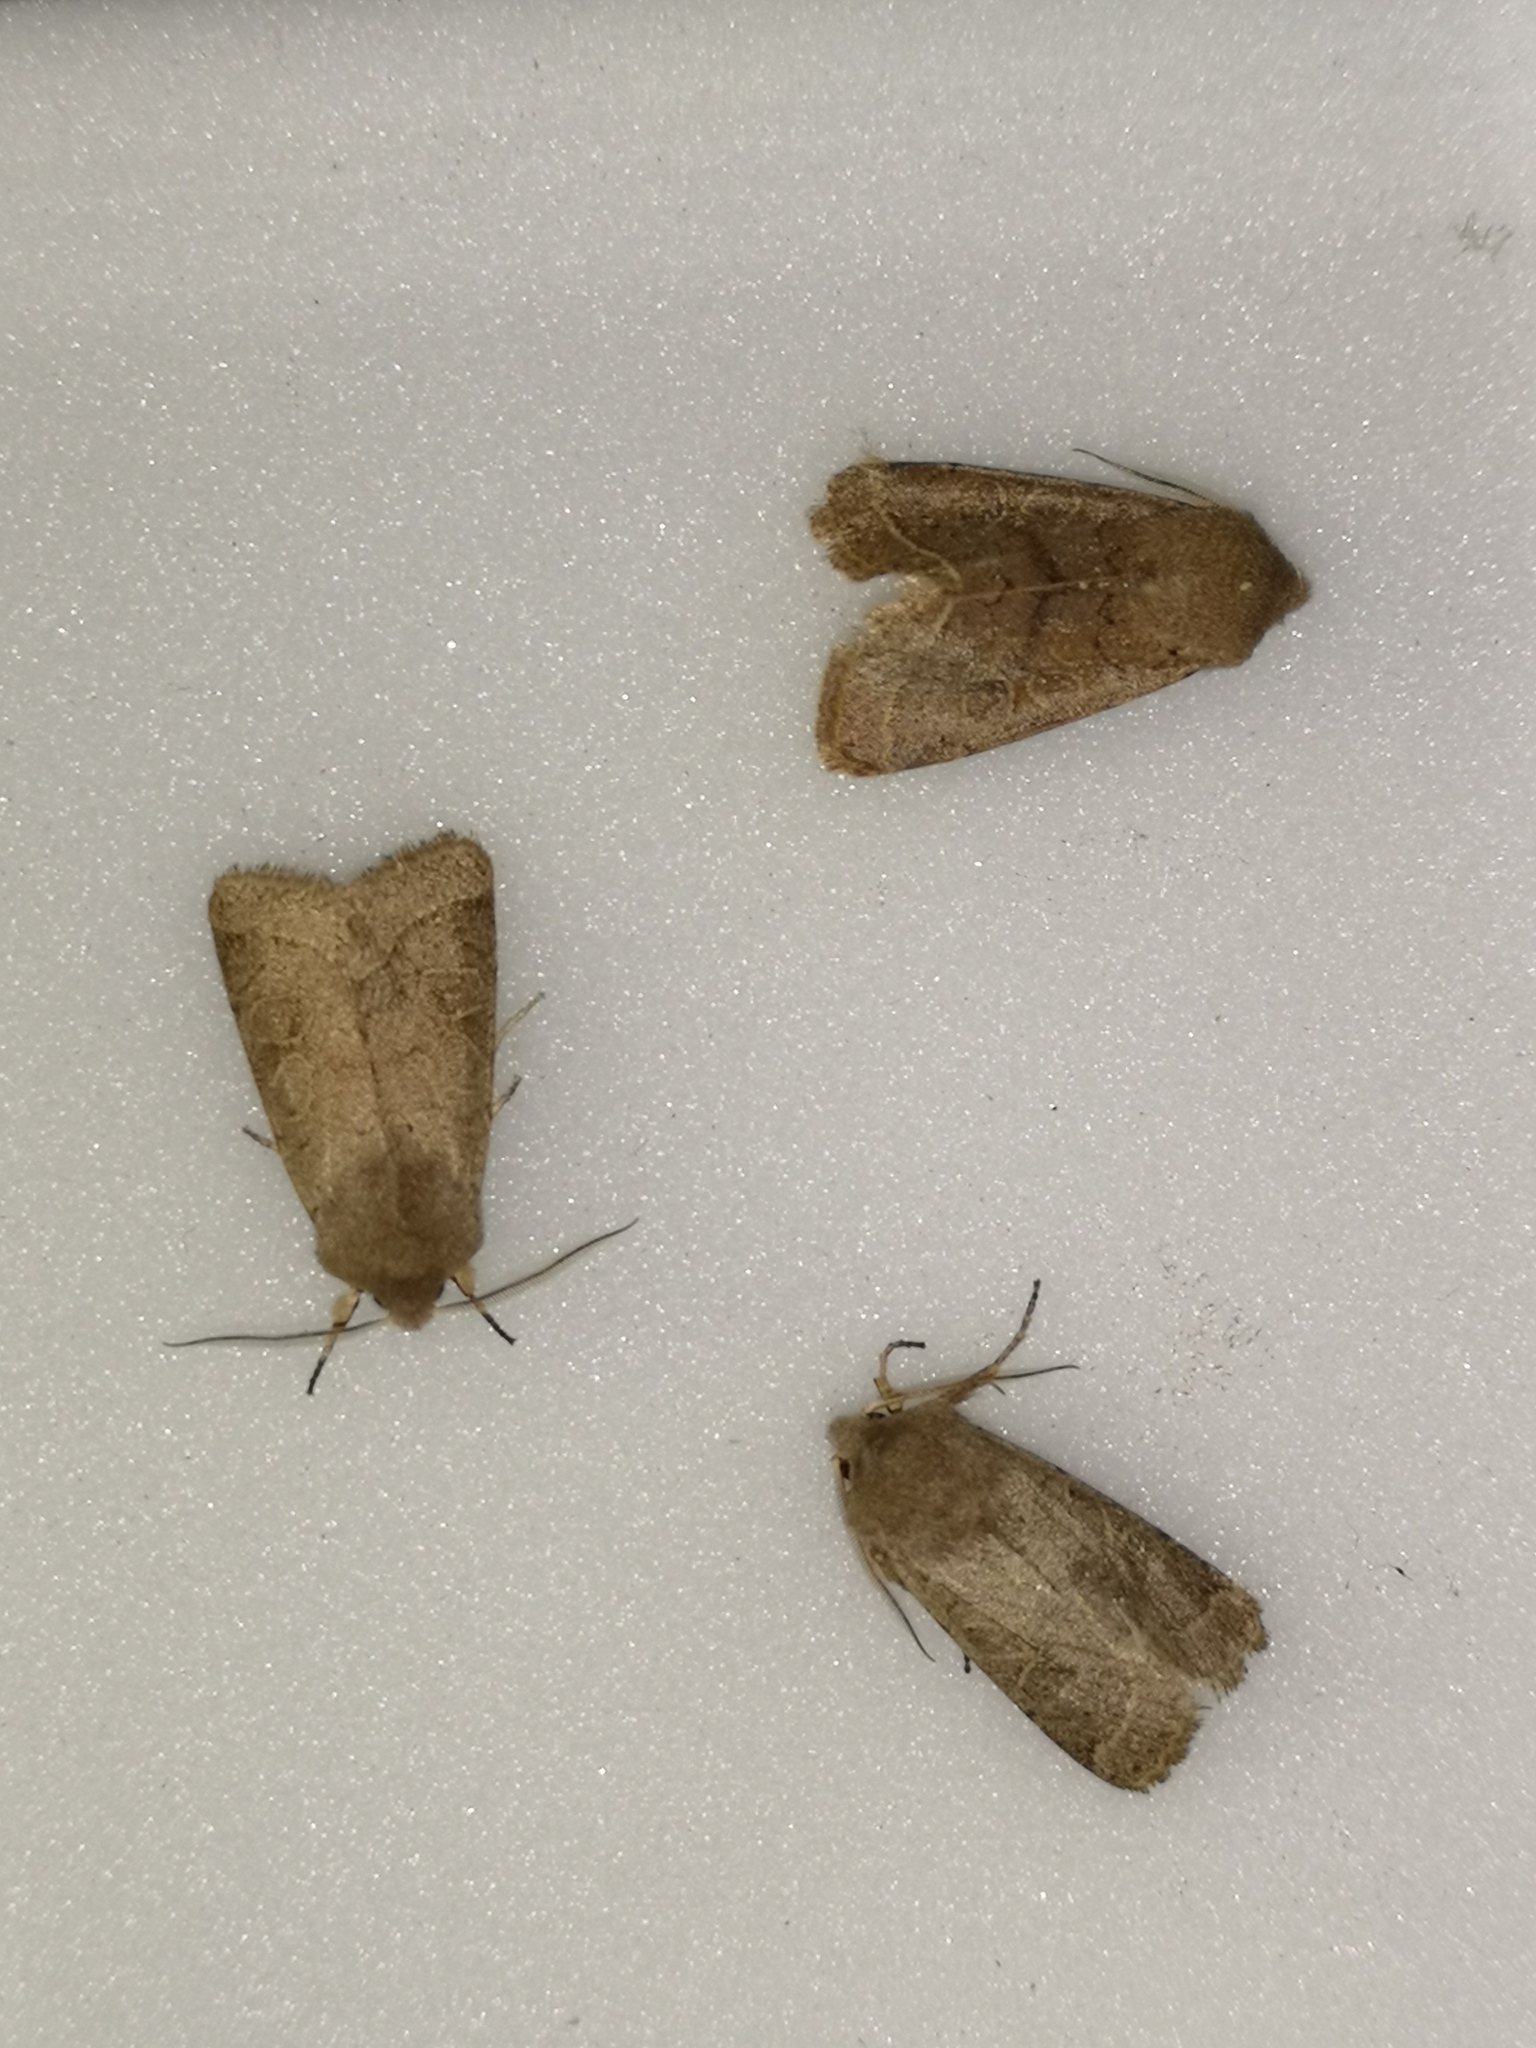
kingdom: Animalia
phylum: Arthropoda
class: Insecta
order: Lepidoptera
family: Noctuidae
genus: Orthosia
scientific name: Orthosia cerasi
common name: Common quaker
